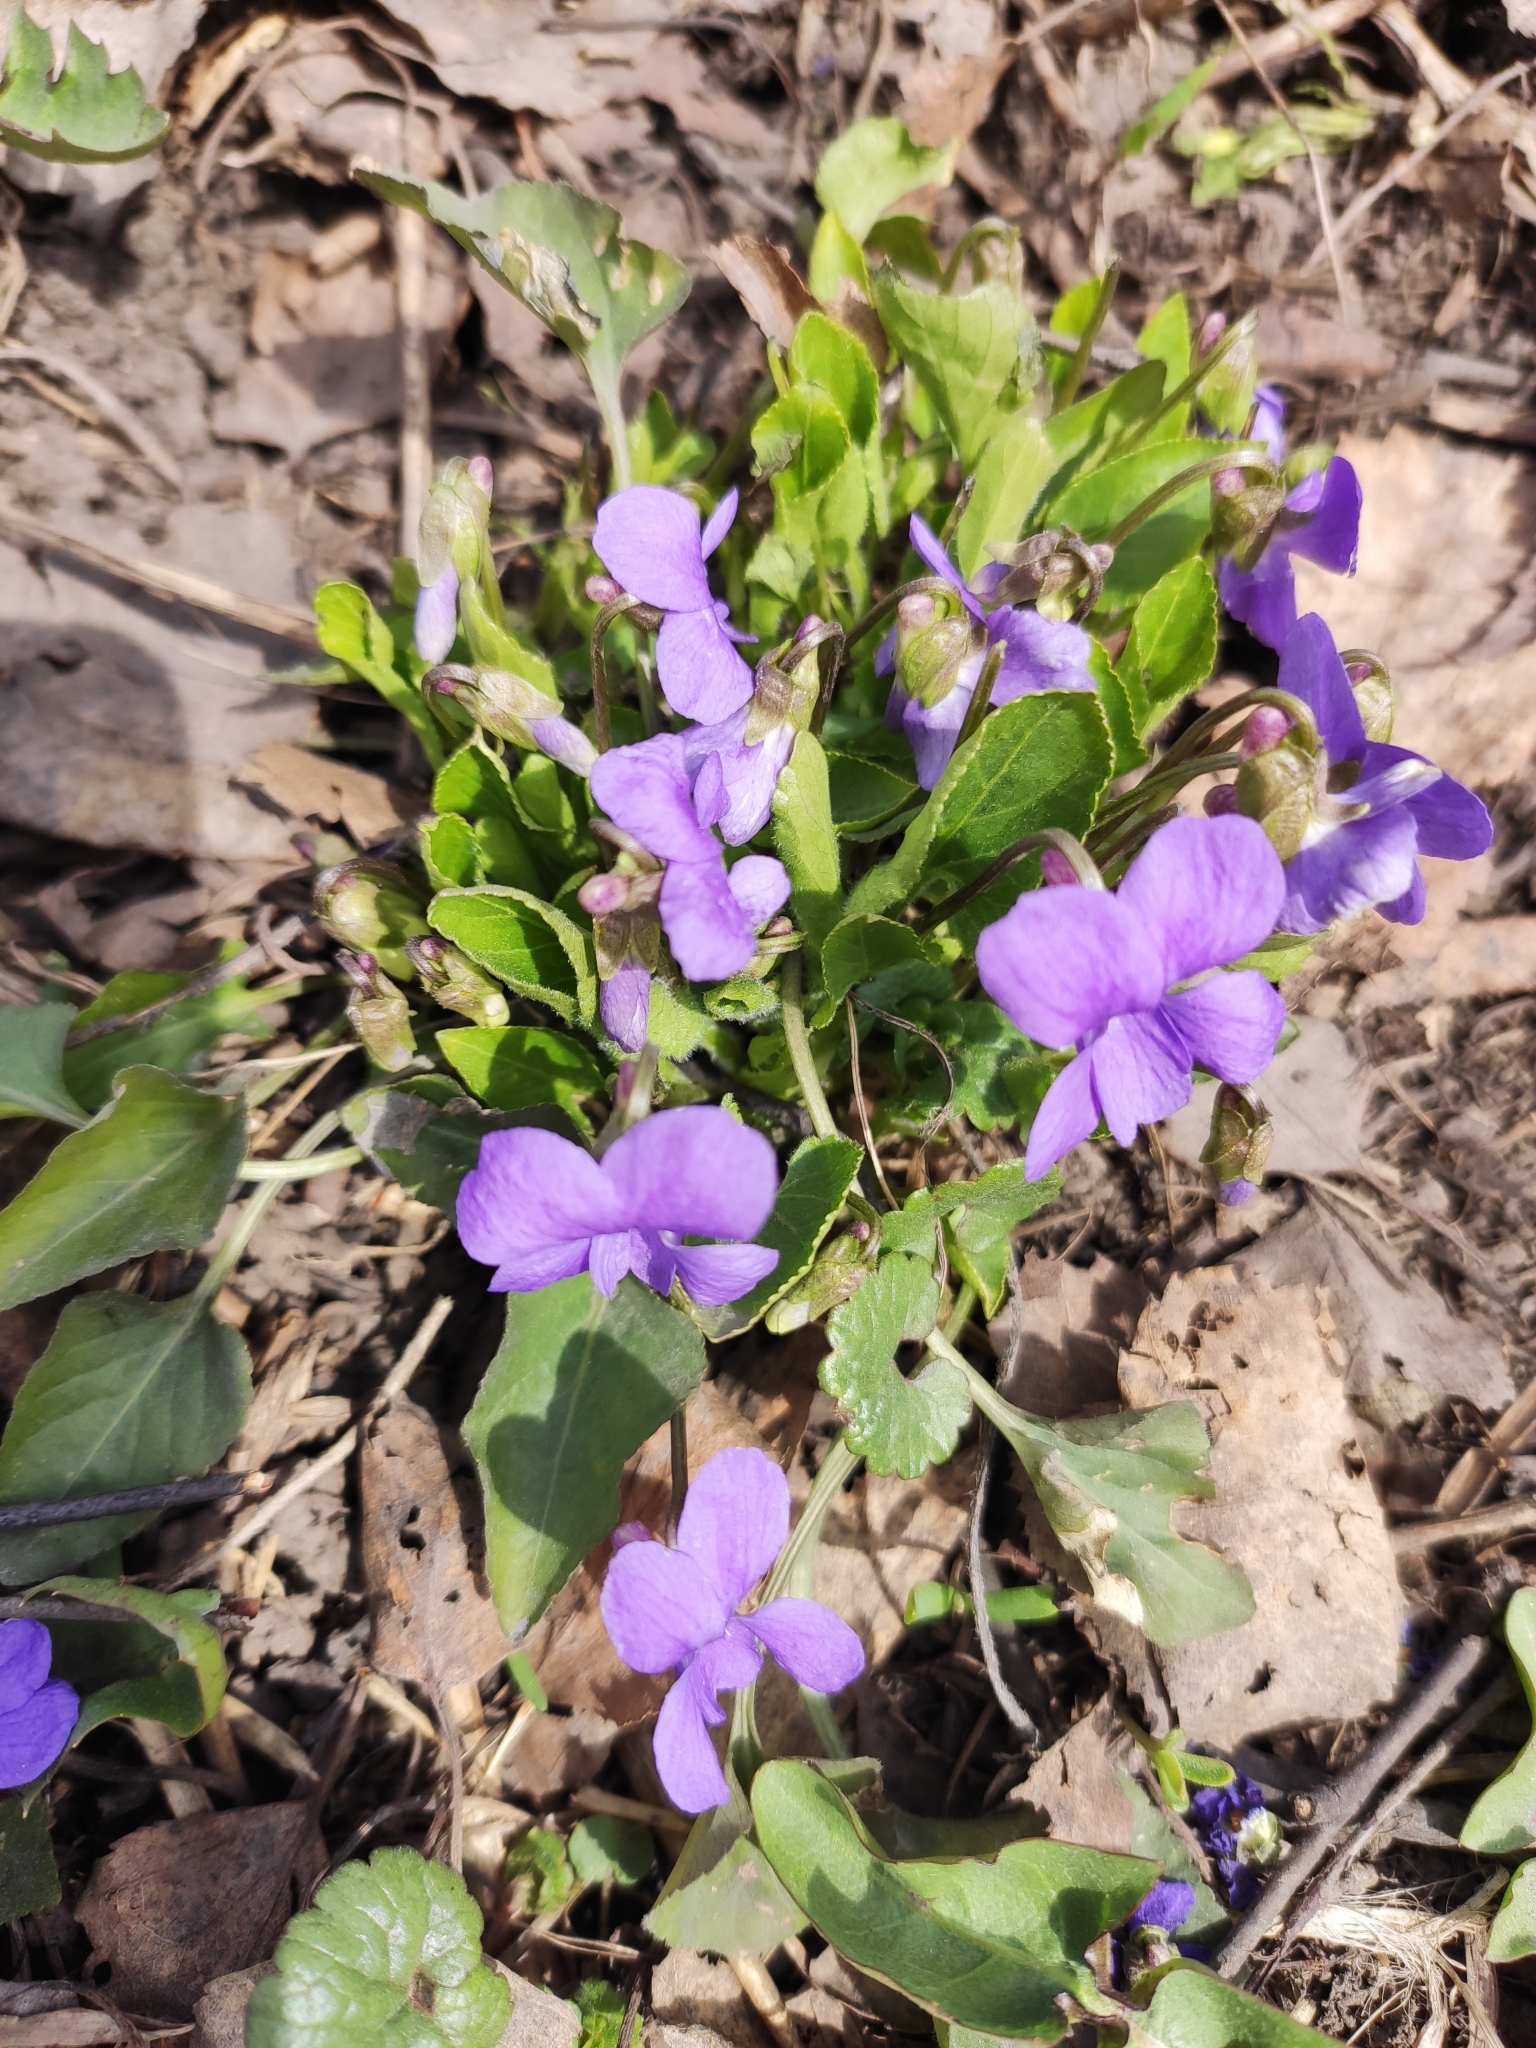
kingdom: Plantae
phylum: Tracheophyta
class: Magnoliopsida
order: Malpighiales
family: Violaceae
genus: Viola
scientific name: Viola hirta
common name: Hairy violet
